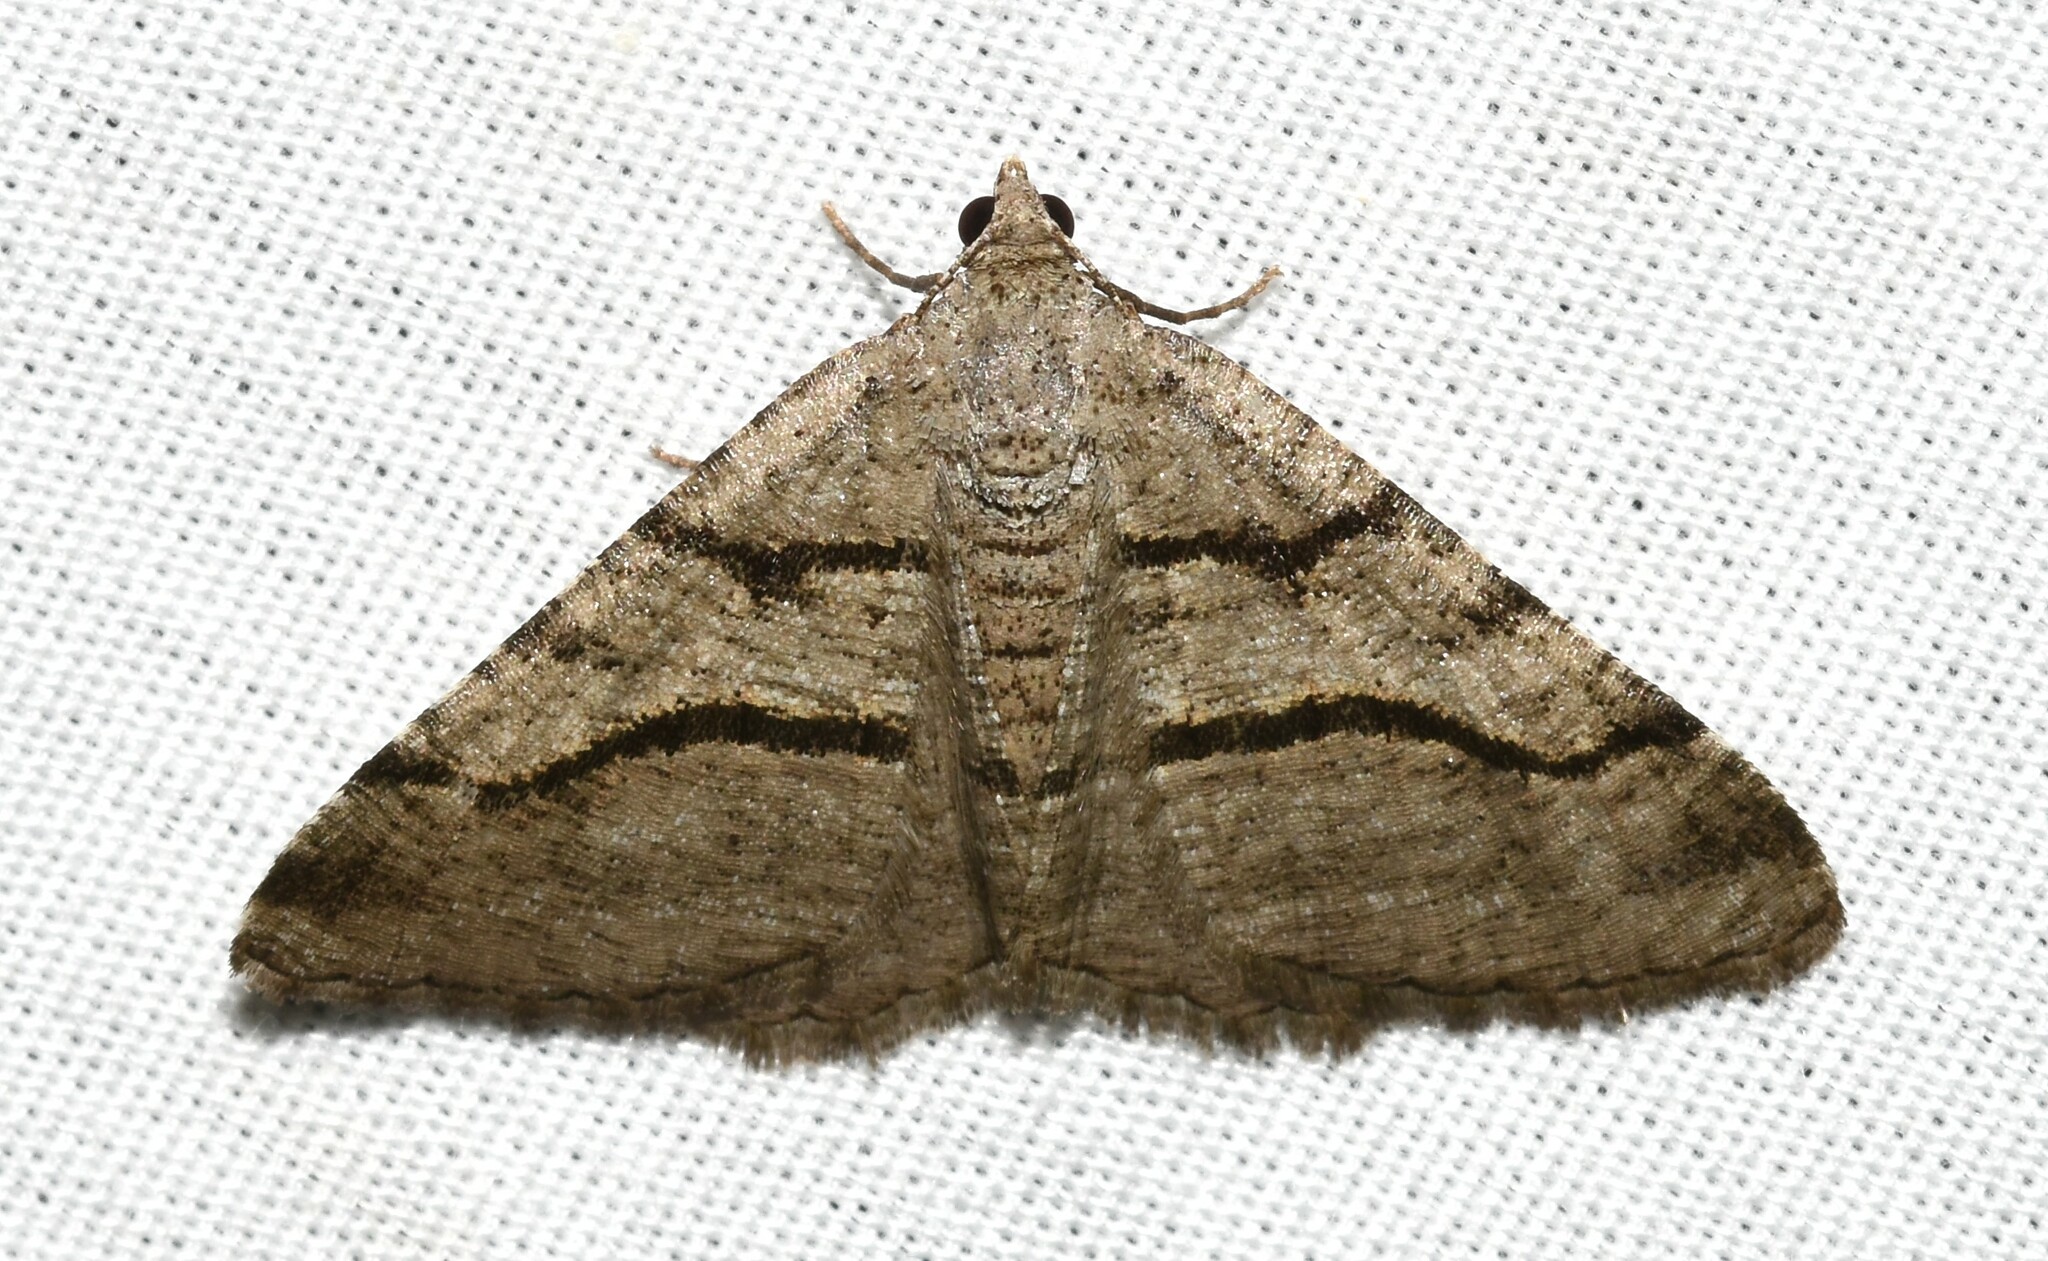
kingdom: Animalia
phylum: Arthropoda
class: Insecta
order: Lepidoptera
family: Geometridae
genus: Digrammia
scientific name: Digrammia continuata
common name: Curve-lined angle
